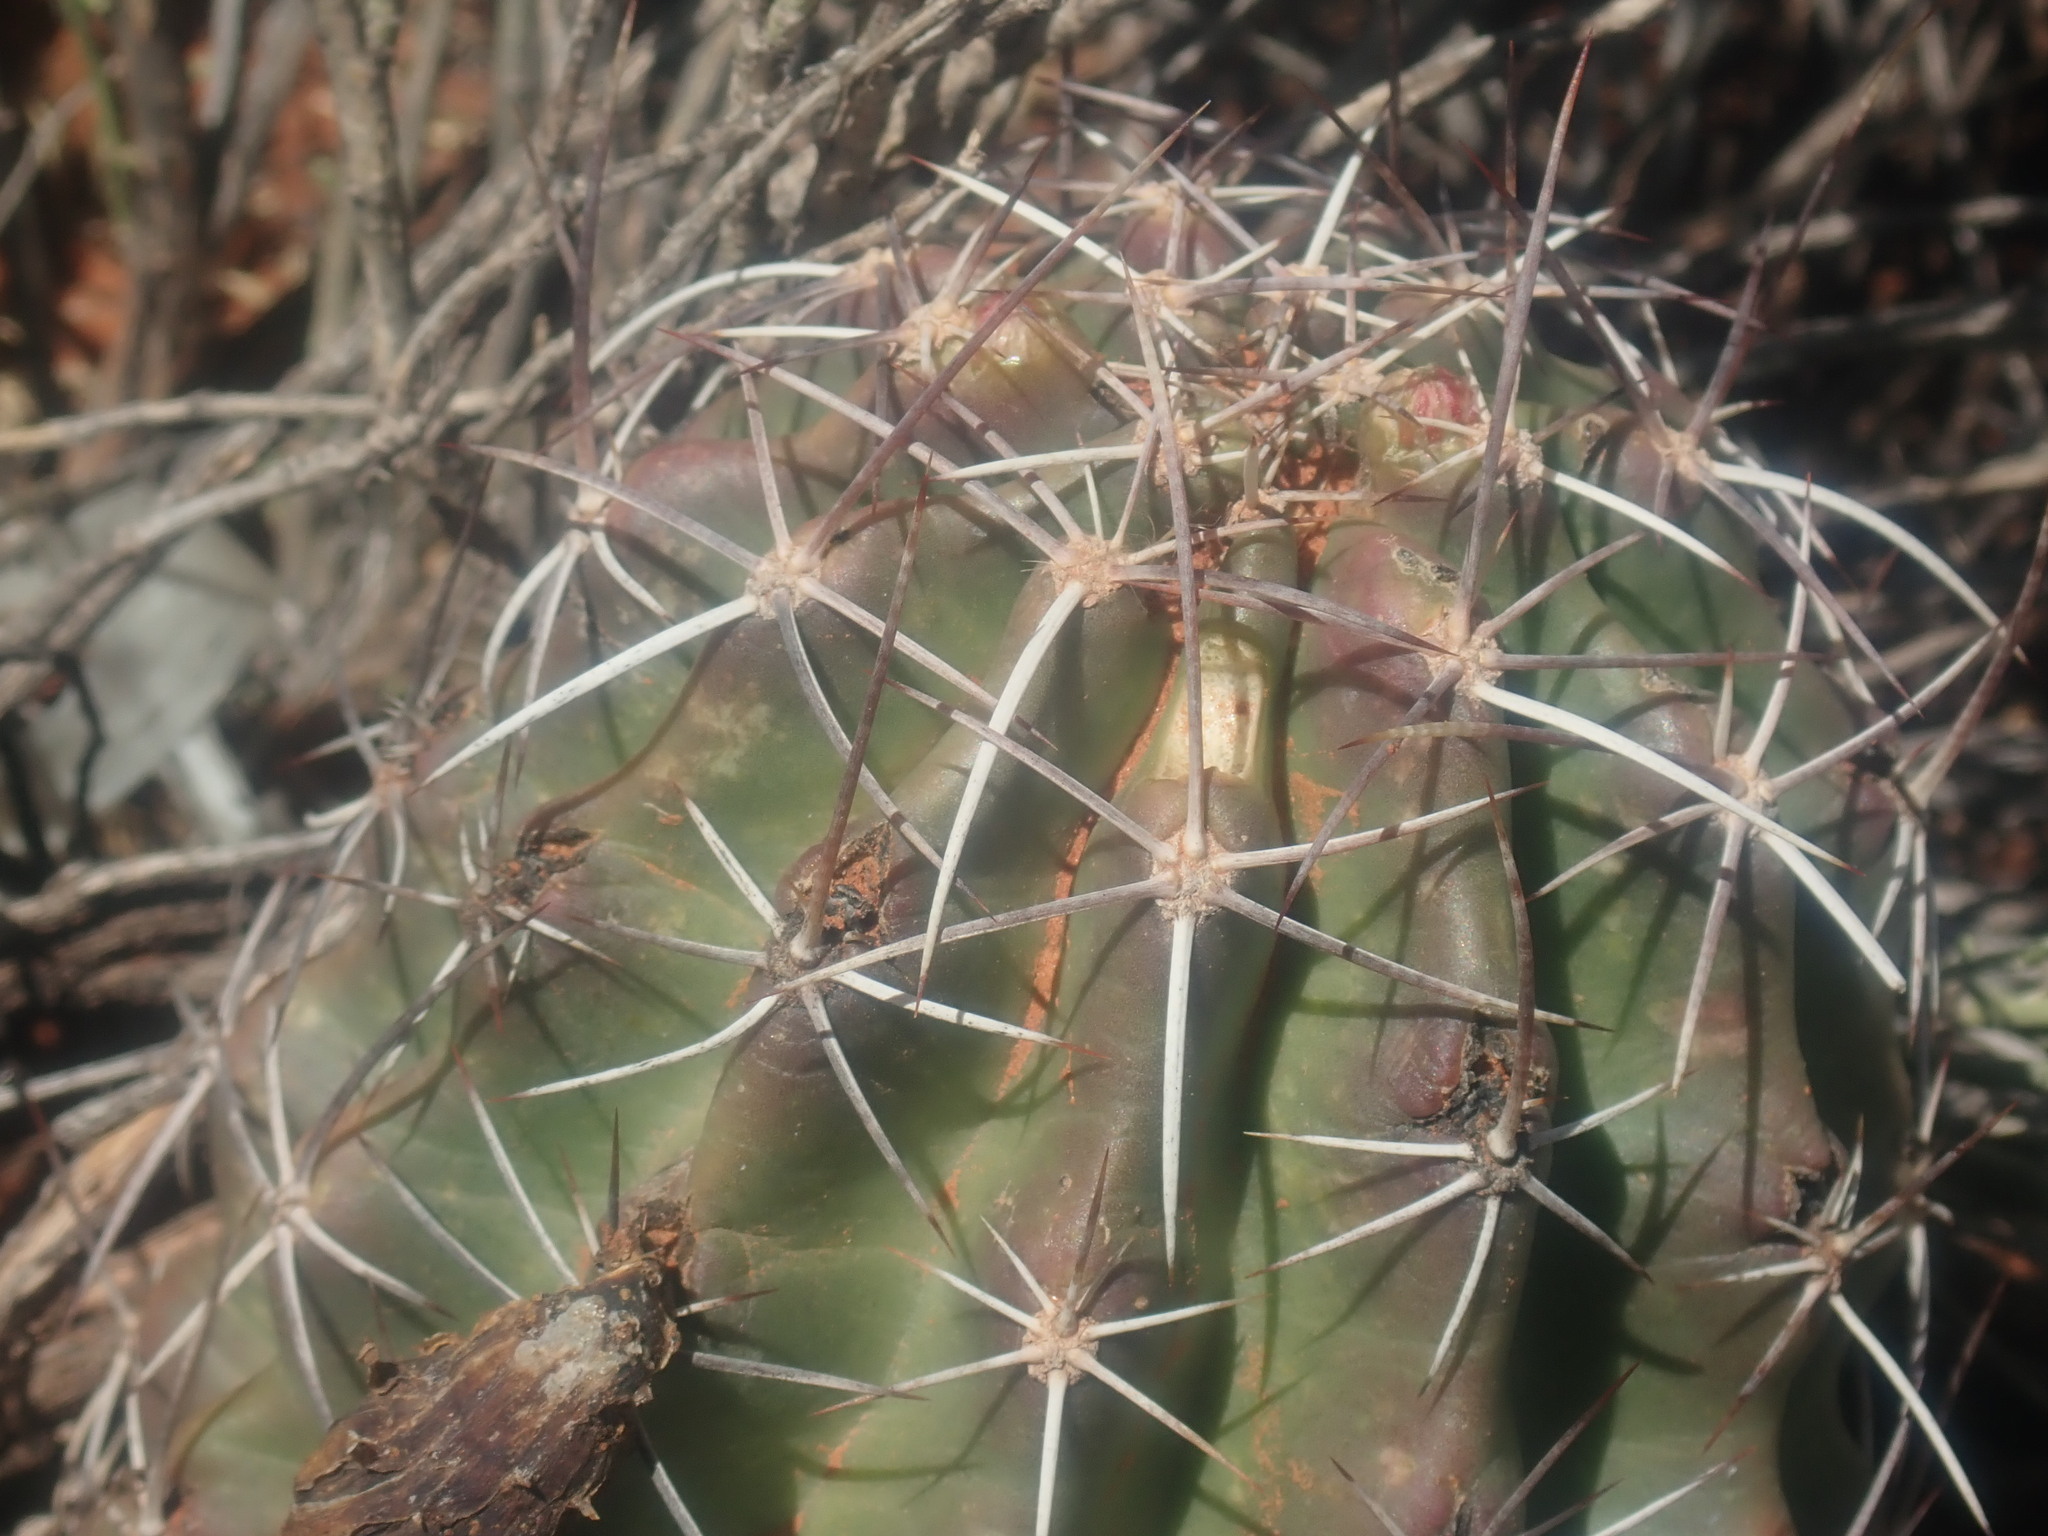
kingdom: Plantae
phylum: Tracheophyta
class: Magnoliopsida
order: Caryophyllales
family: Cactaceae
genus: Echinocereus
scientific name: Echinocereus fendleri
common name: Fendler's hedgehog cactus
